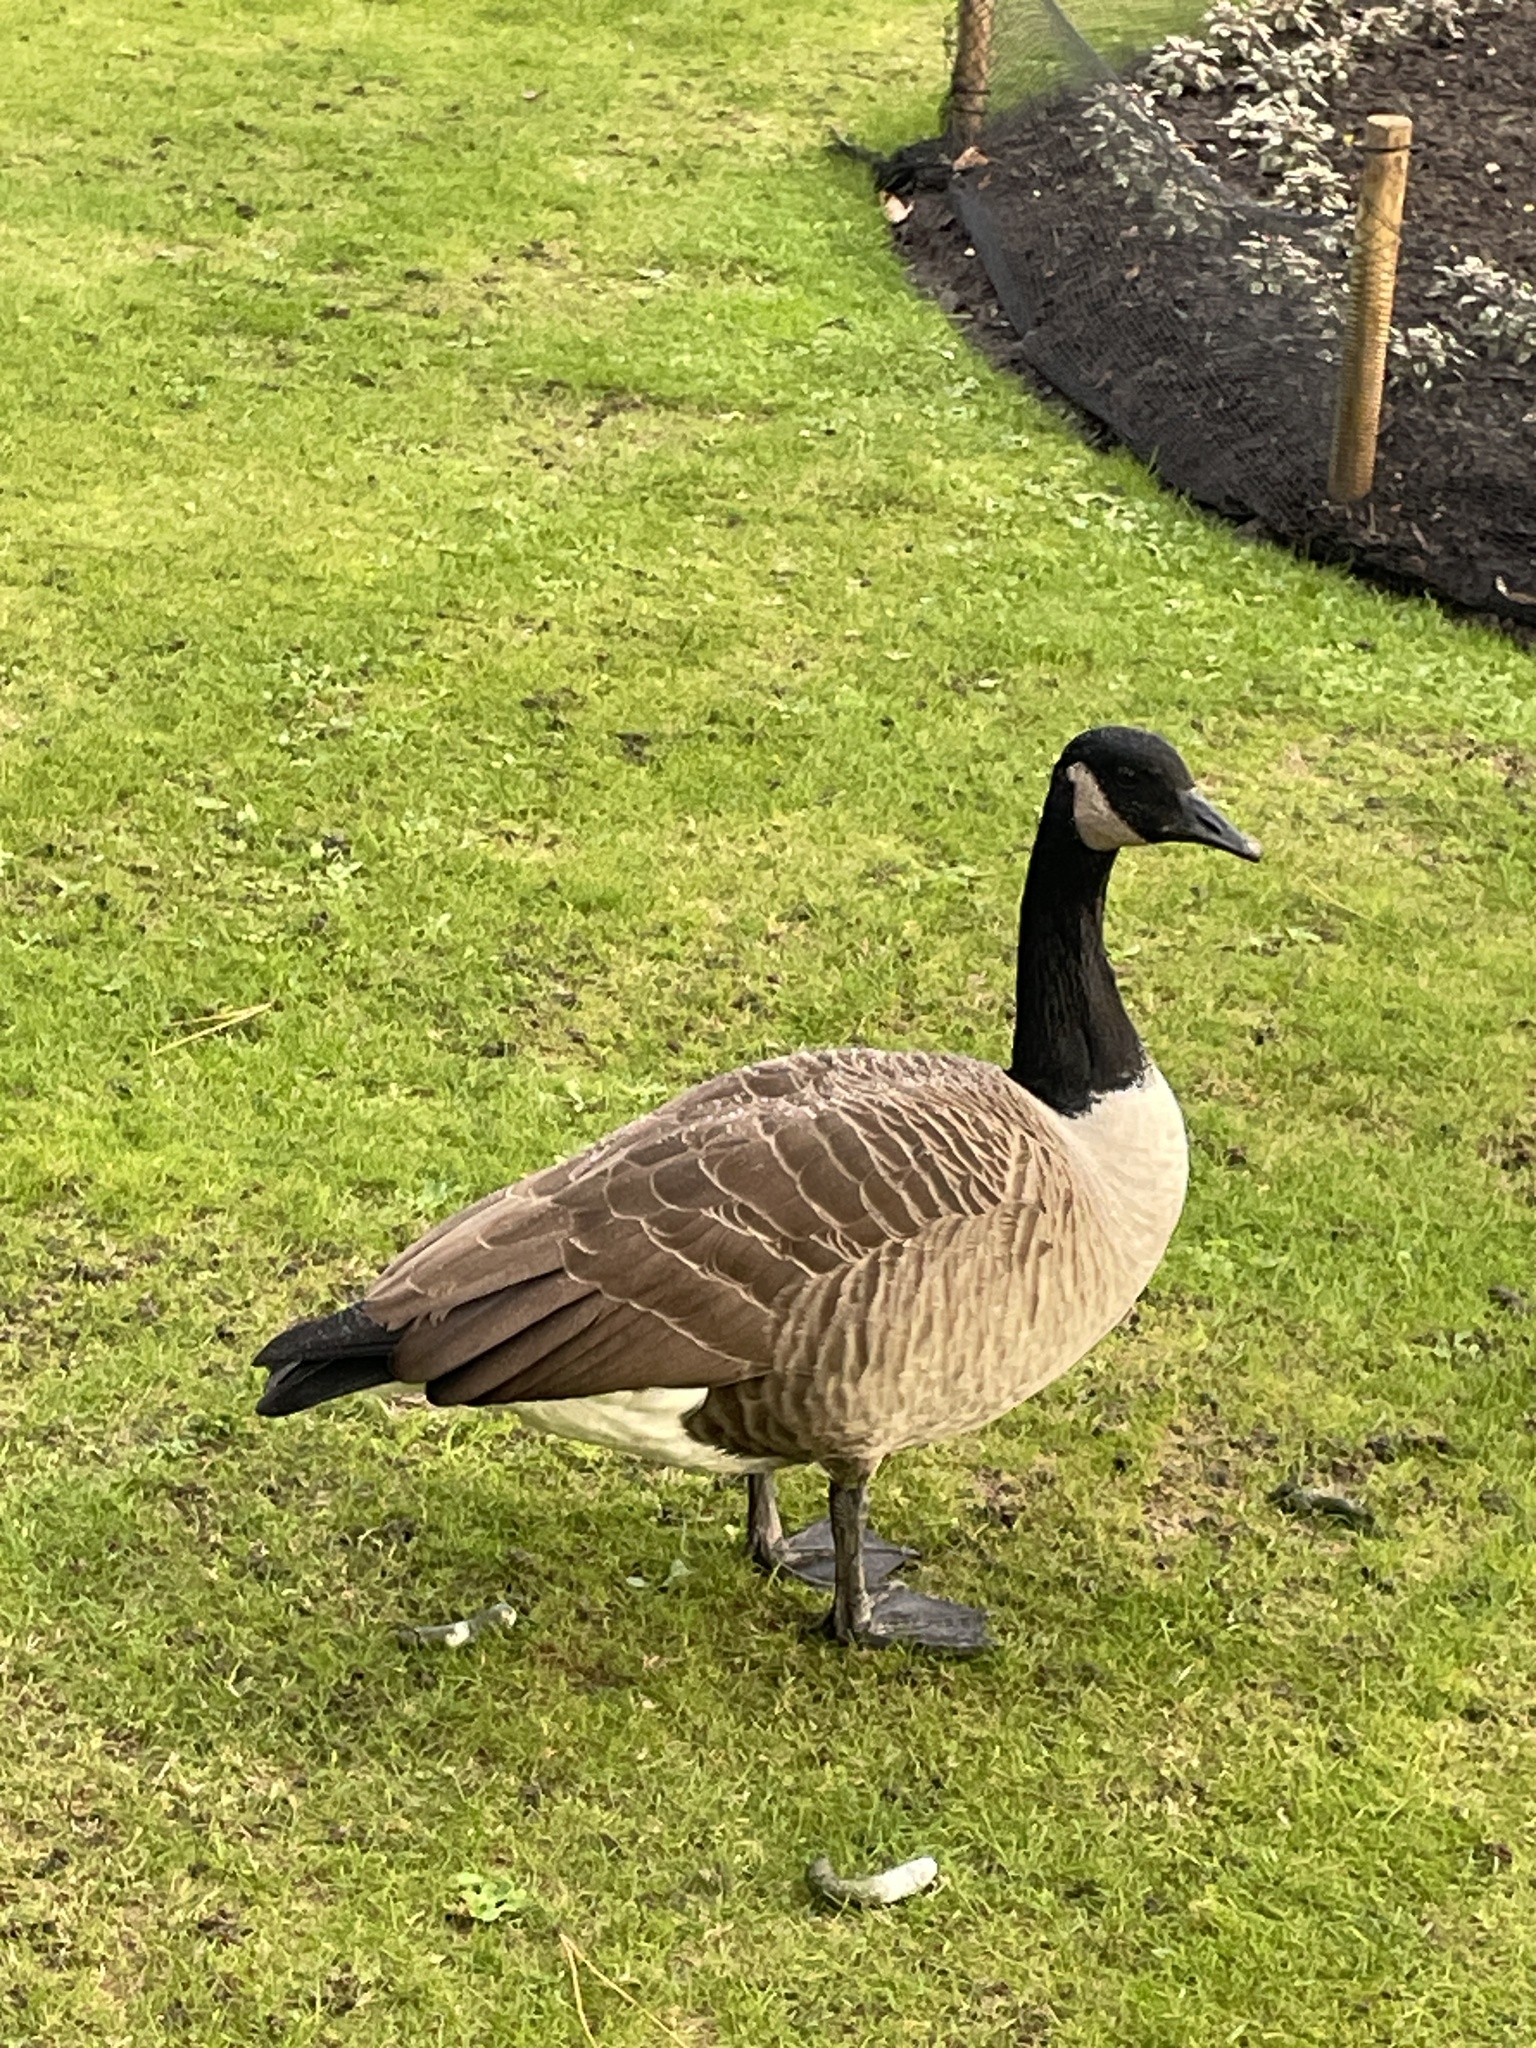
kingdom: Animalia
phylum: Chordata
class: Aves
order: Anseriformes
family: Anatidae
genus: Branta
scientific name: Branta canadensis
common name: Canada goose
